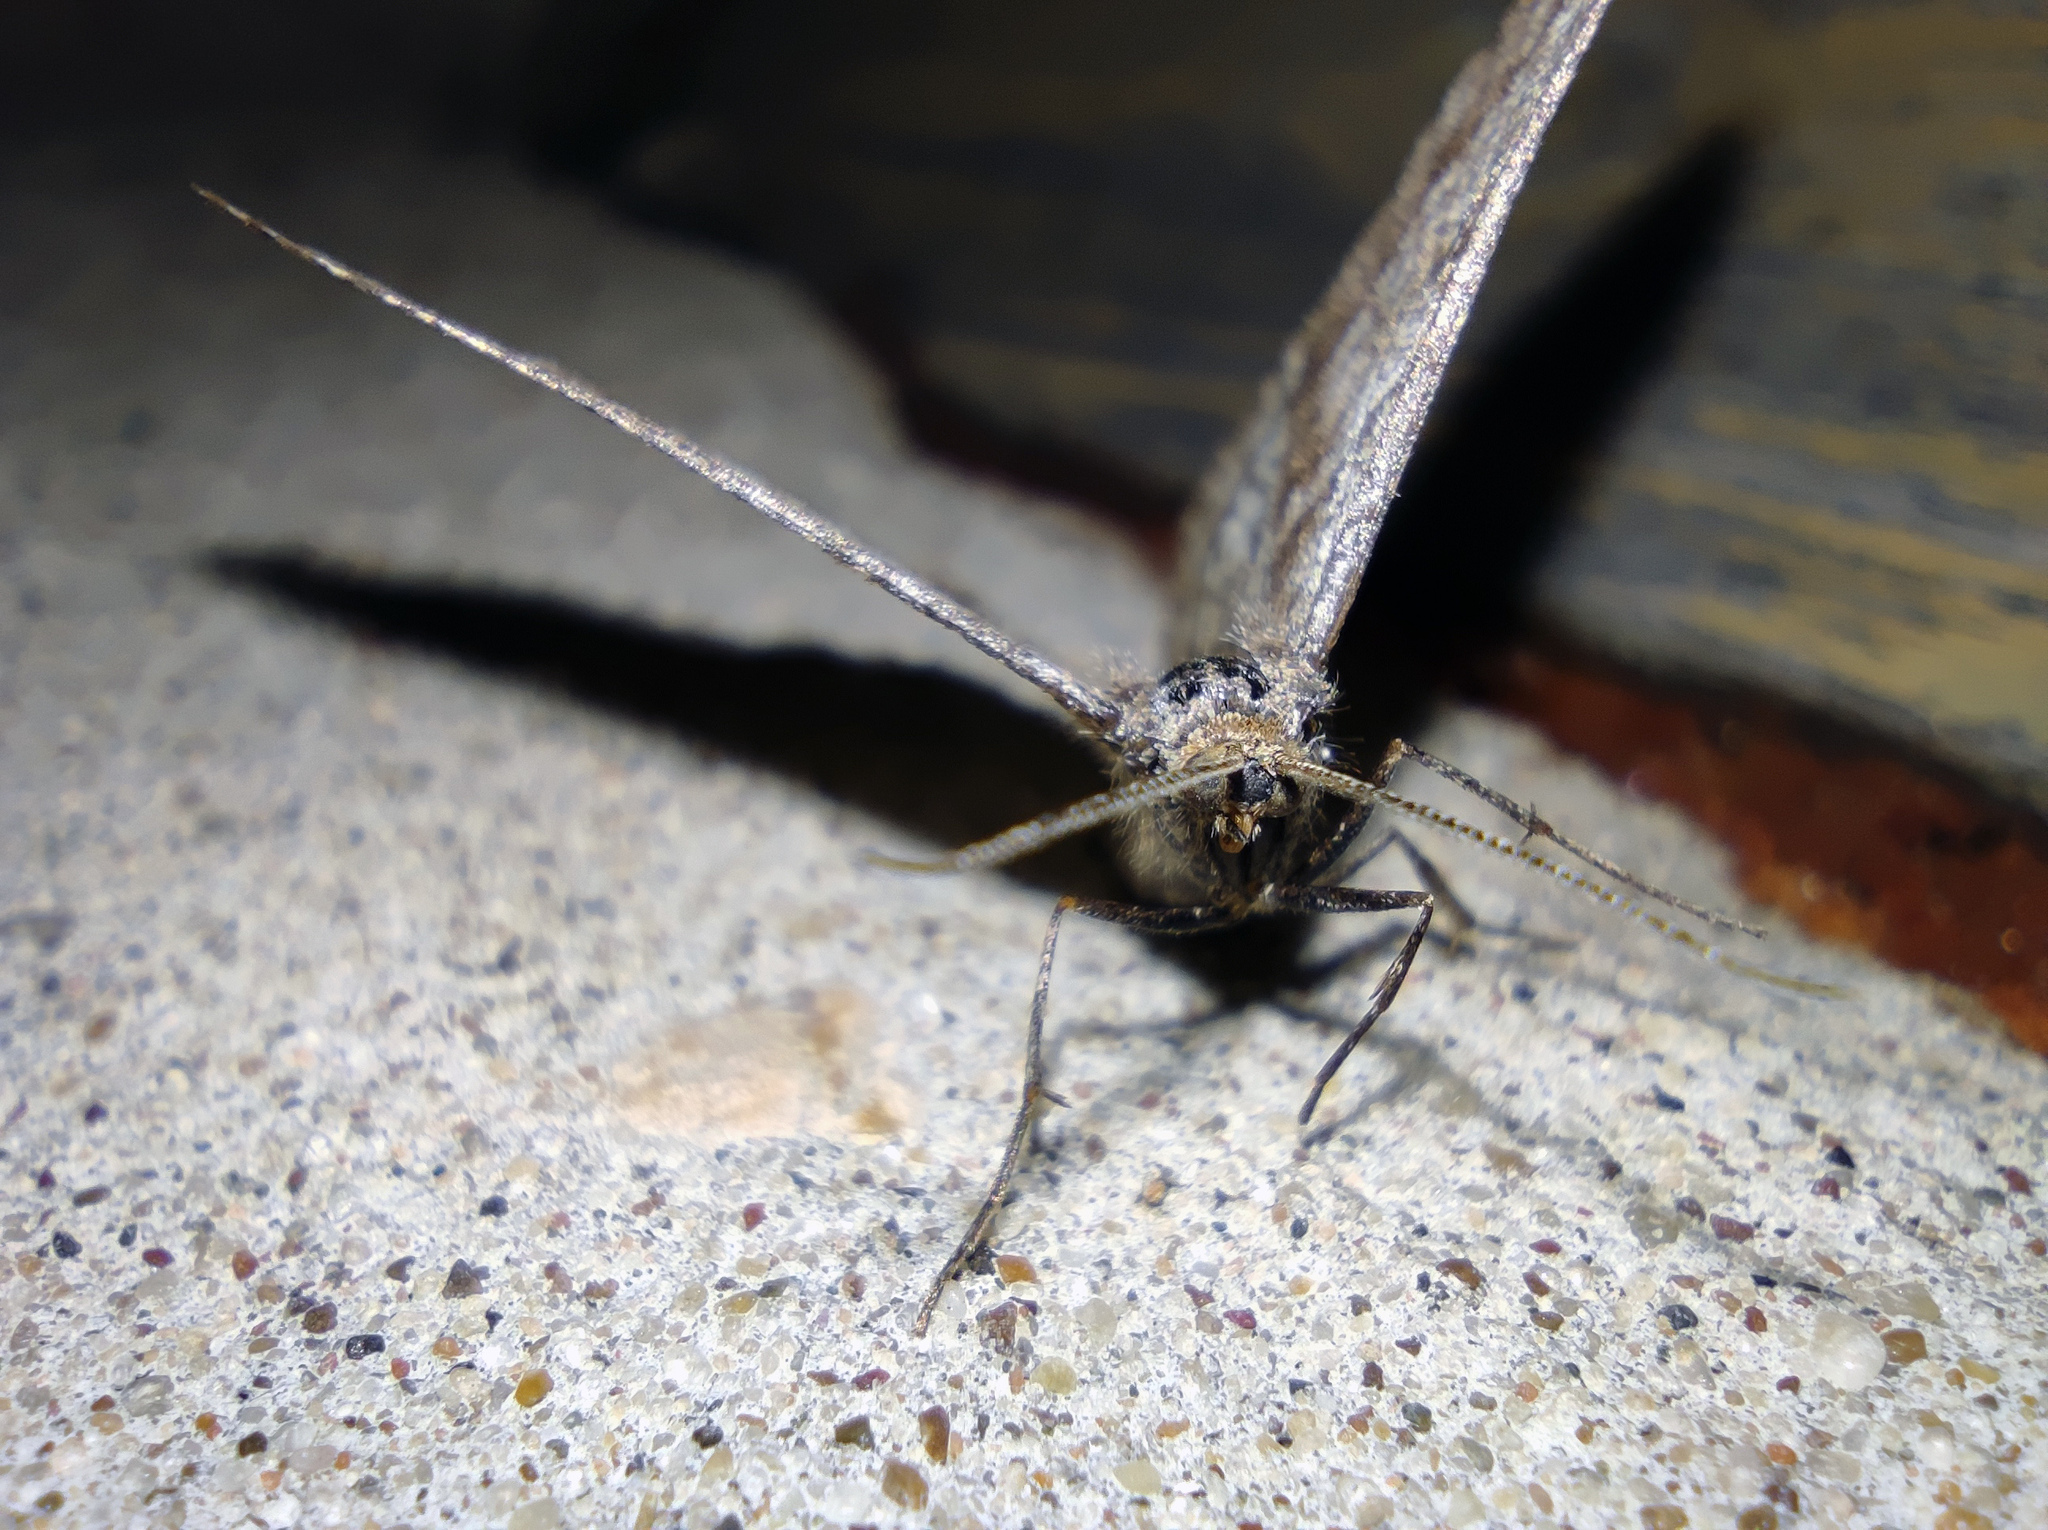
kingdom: Animalia
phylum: Arthropoda
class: Insecta
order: Lepidoptera
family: Geometridae
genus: Tephrina
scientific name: Tephrina murinaria
